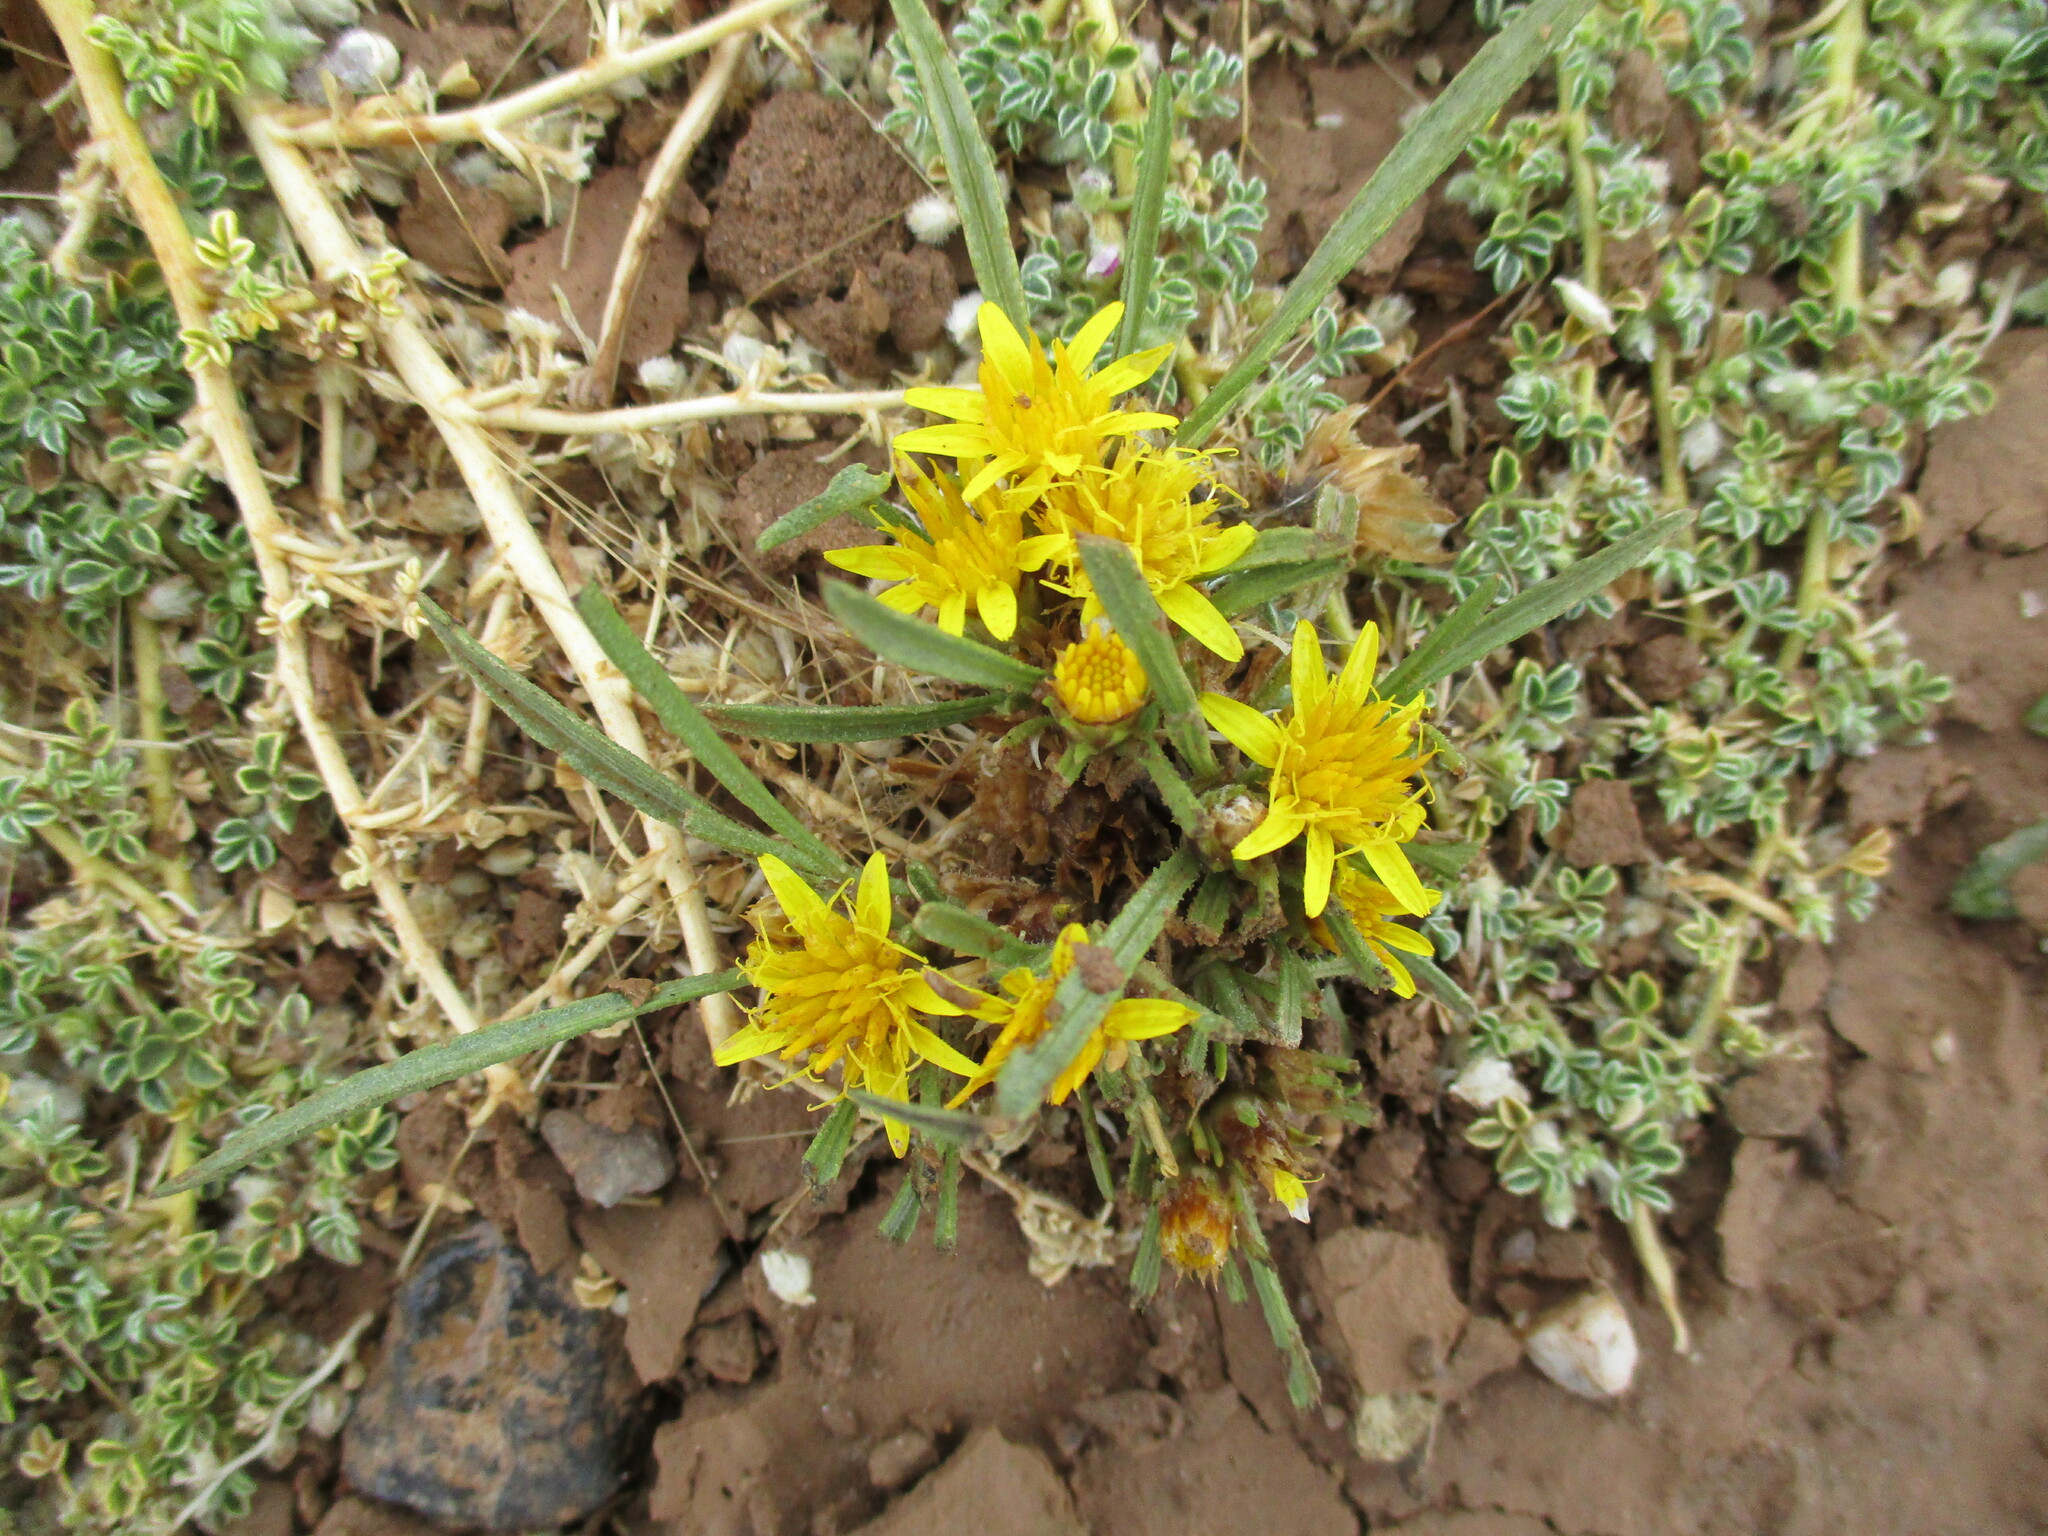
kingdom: Plantae
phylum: Tracheophyta
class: Magnoliopsida
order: Asterales
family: Asteraceae
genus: Geigeria
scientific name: Geigeria ornativa
